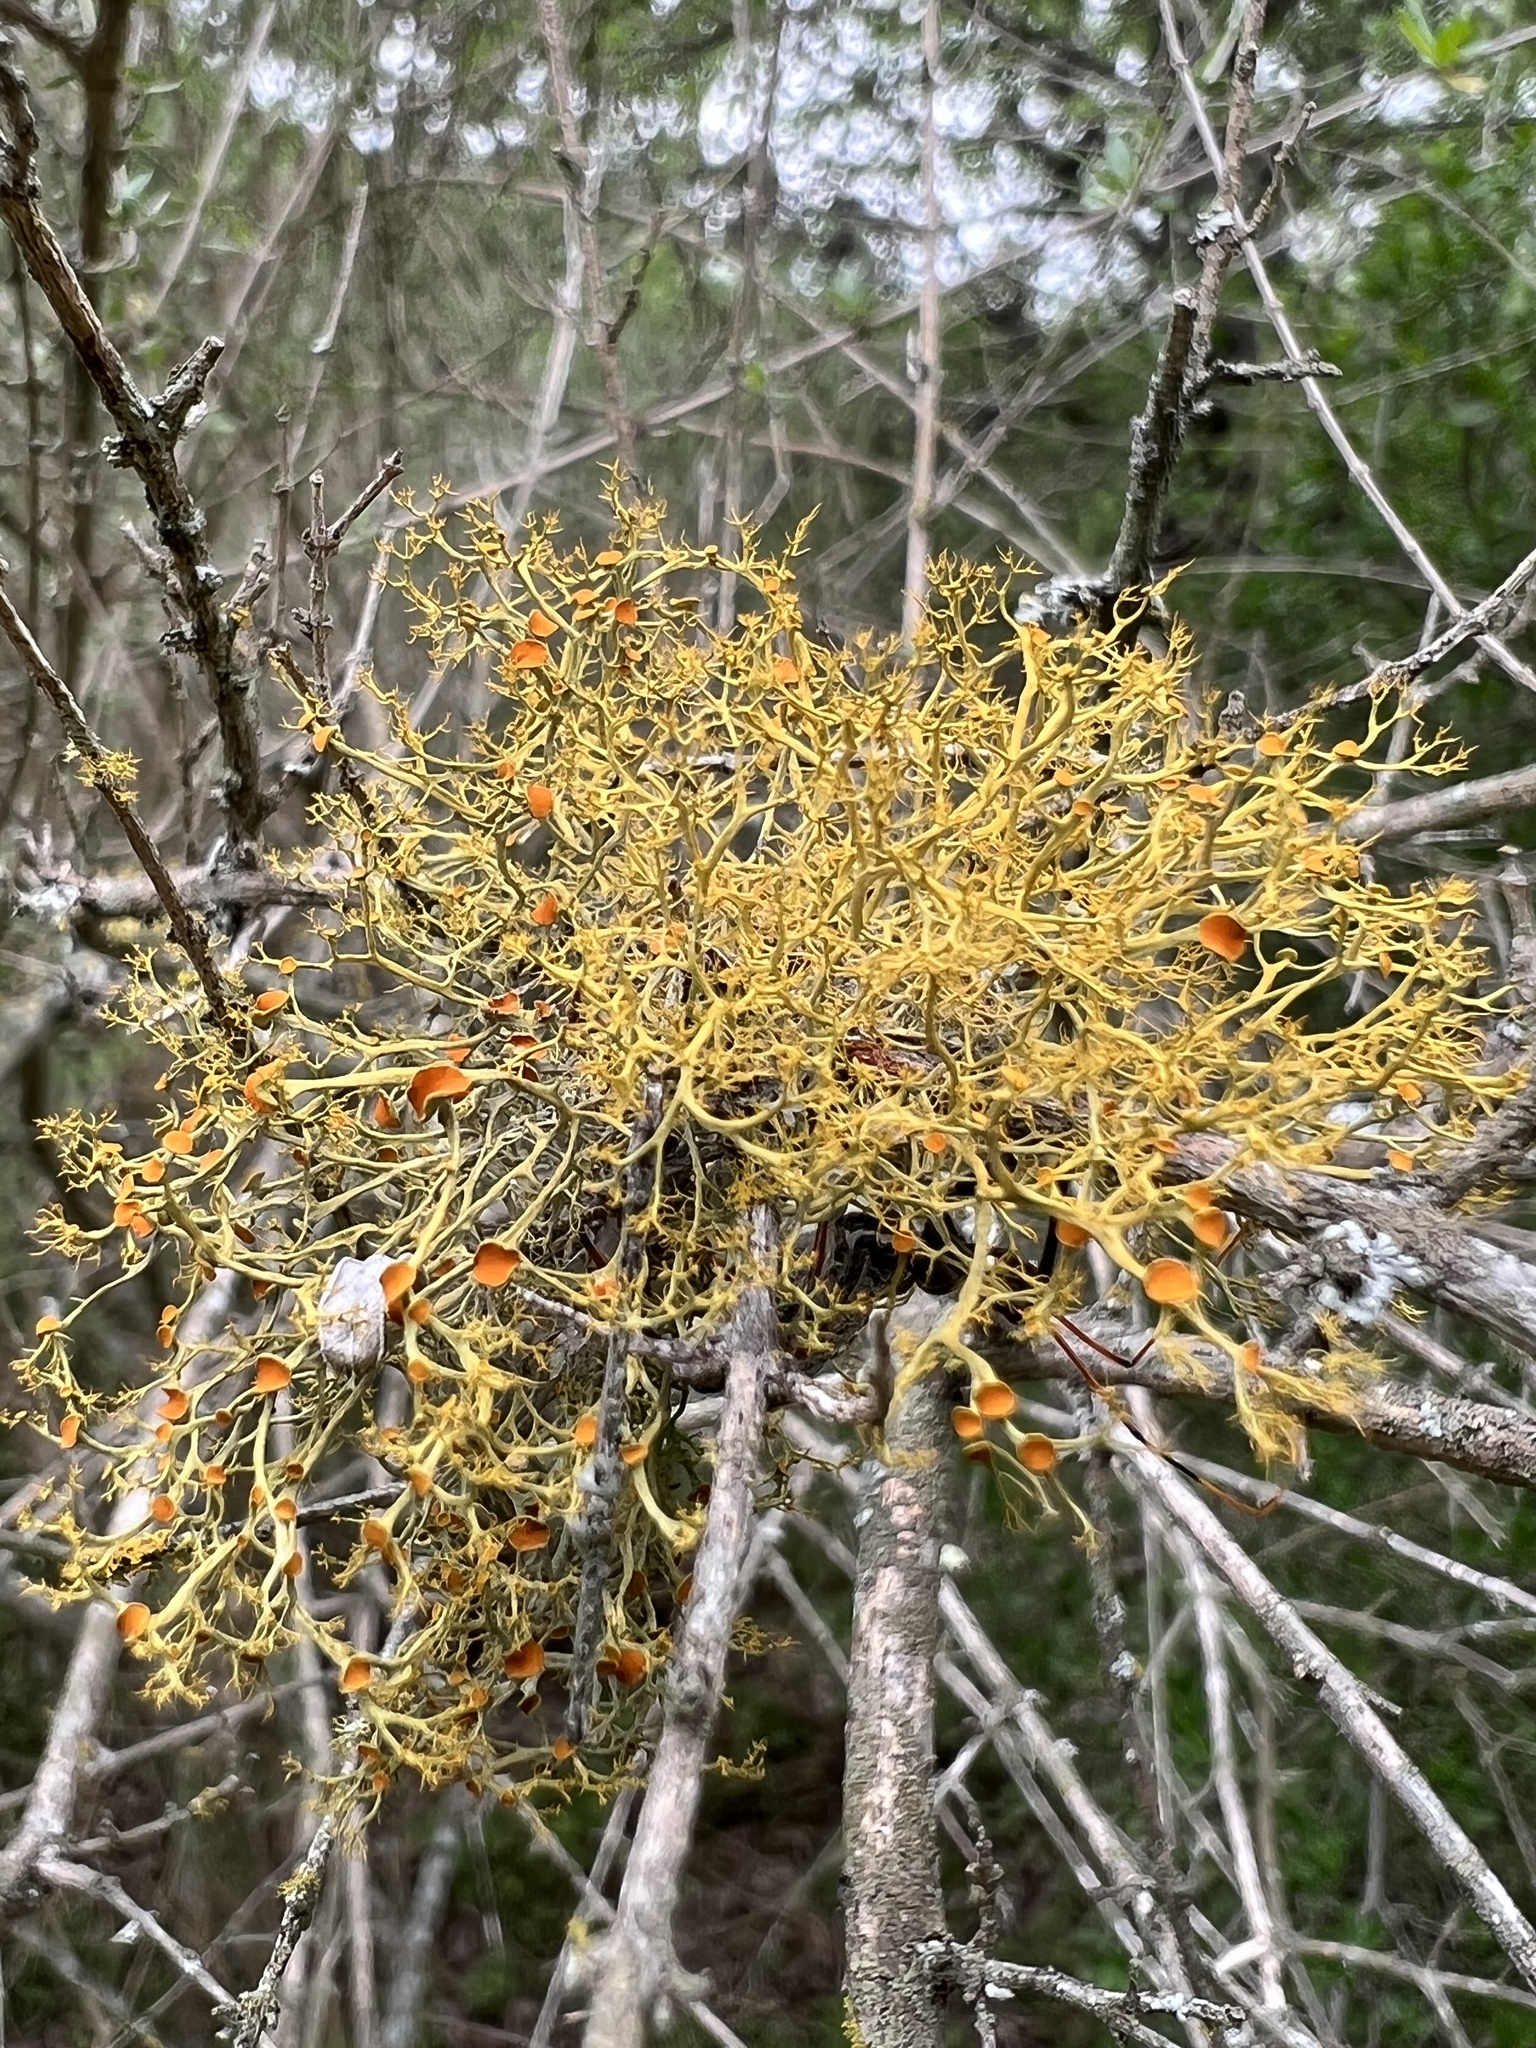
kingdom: Fungi
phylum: Ascomycota
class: Lecanoromycetes
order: Teloschistales
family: Teloschistaceae
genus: Teloschistes
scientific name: Teloschistes exilis
